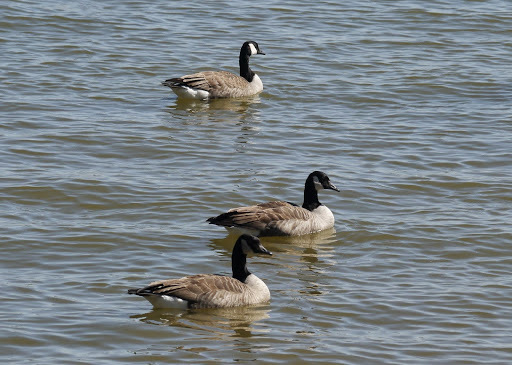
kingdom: Animalia
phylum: Chordata
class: Aves
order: Anseriformes
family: Anatidae
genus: Branta
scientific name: Branta canadensis
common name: Canada goose
